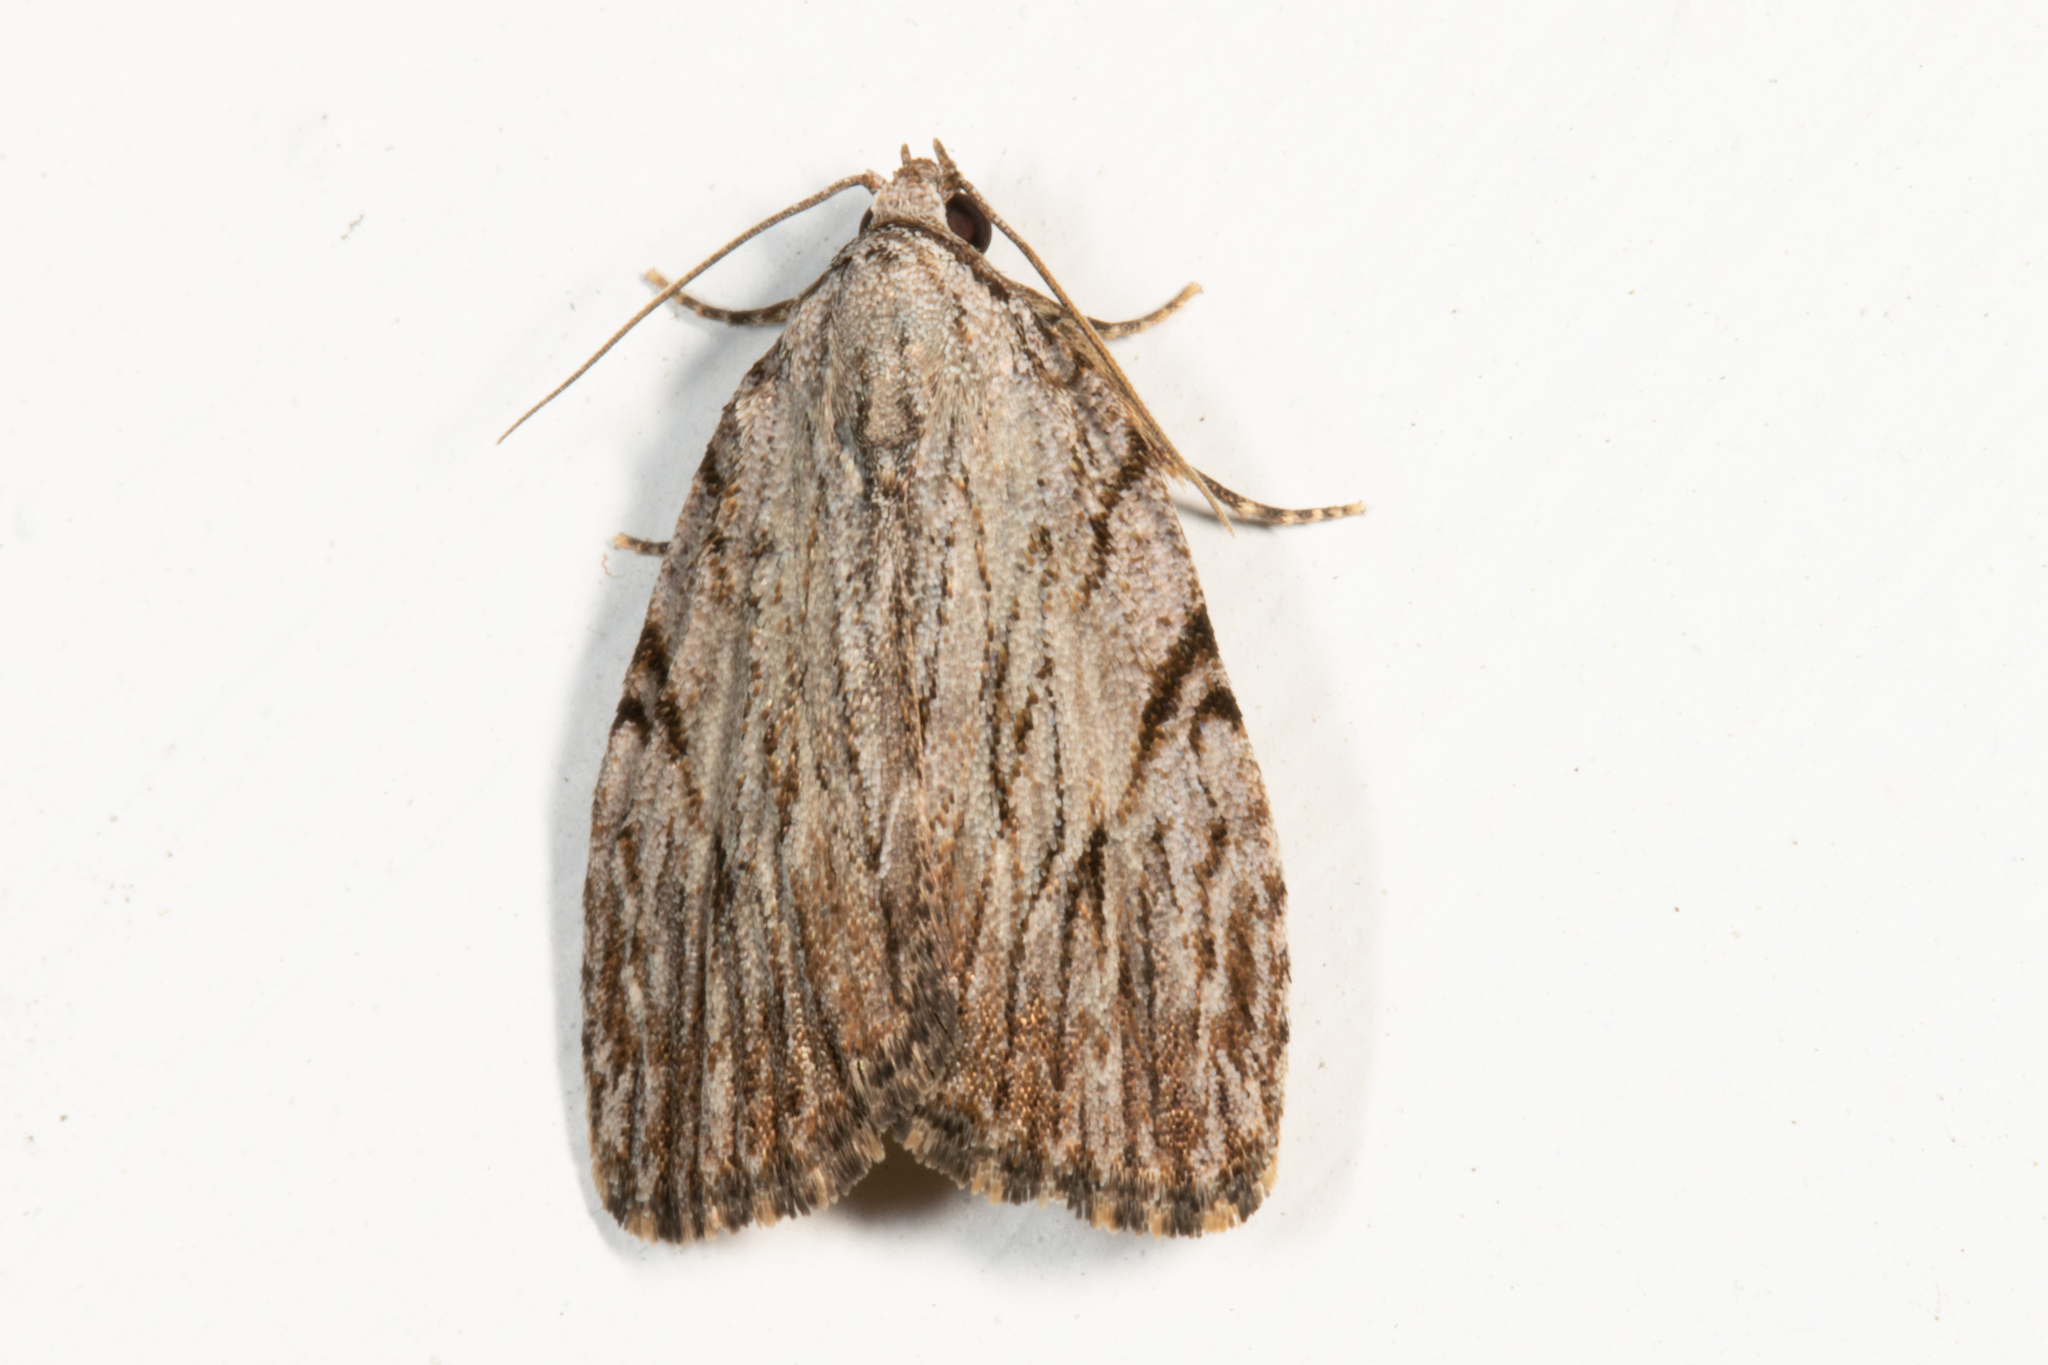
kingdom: Animalia
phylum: Arthropoda
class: Insecta
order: Lepidoptera
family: Noctuidae
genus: Balsa
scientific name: Balsa tristrigella
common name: Three-lined balsa moth
